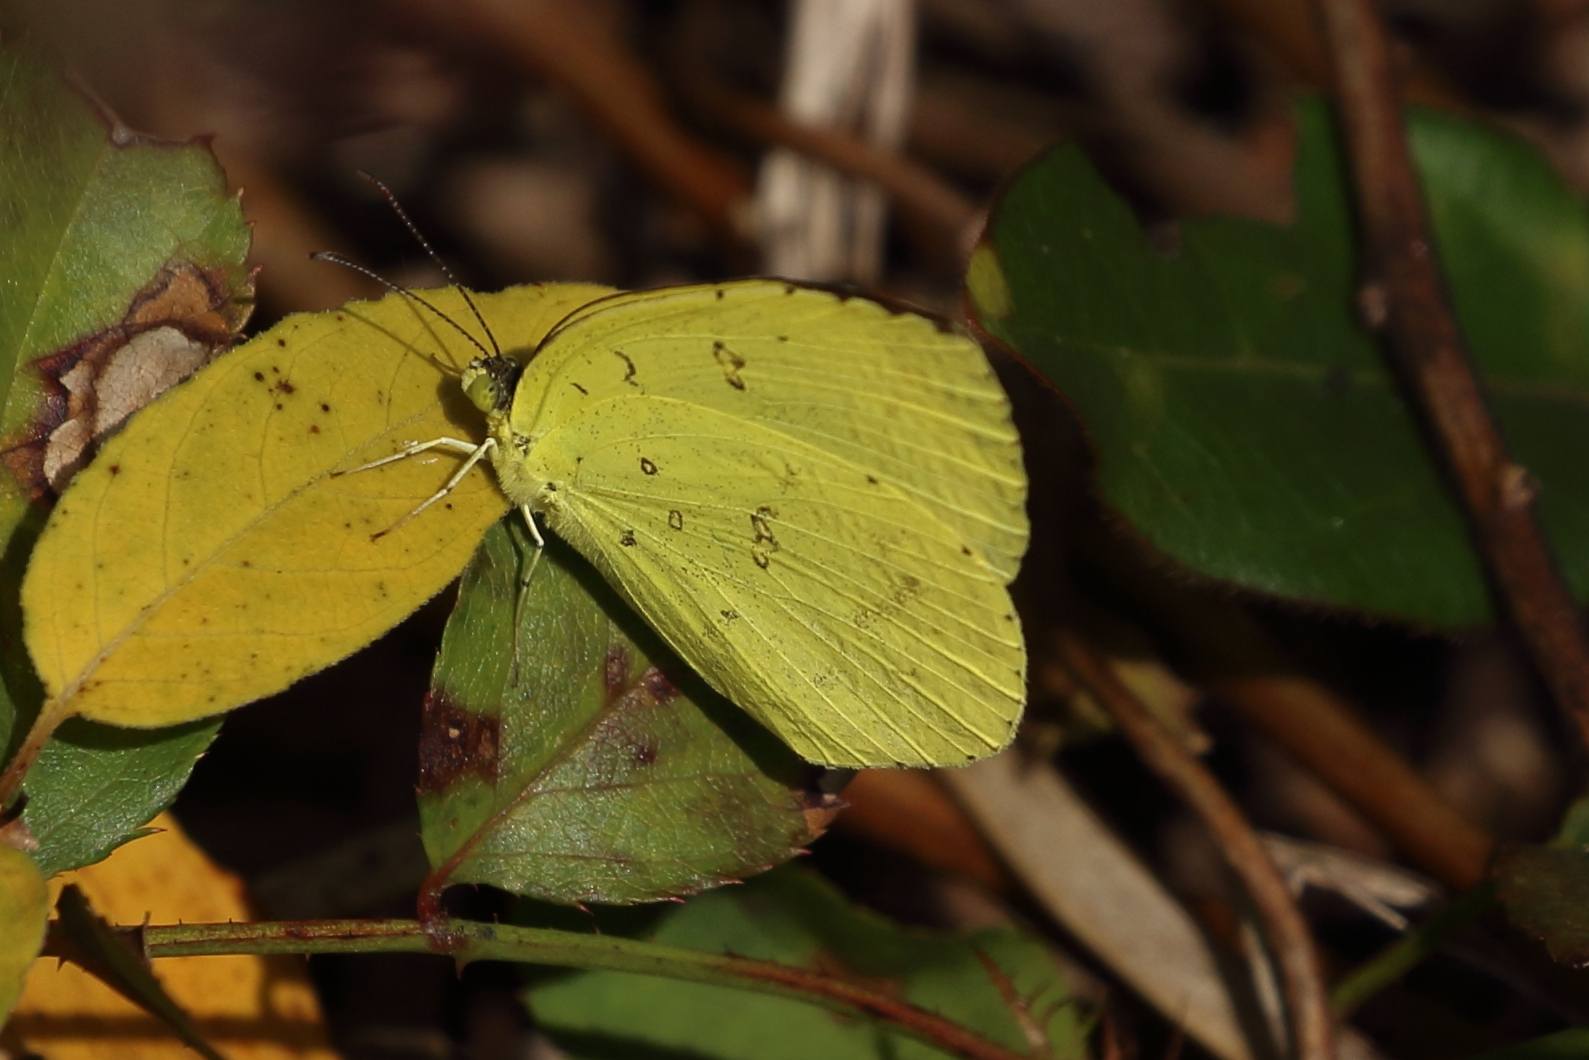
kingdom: Animalia
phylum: Arthropoda
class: Insecta
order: Lepidoptera
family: Pieridae
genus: Eurema
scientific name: Eurema hecabe
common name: Pale grass yellow
